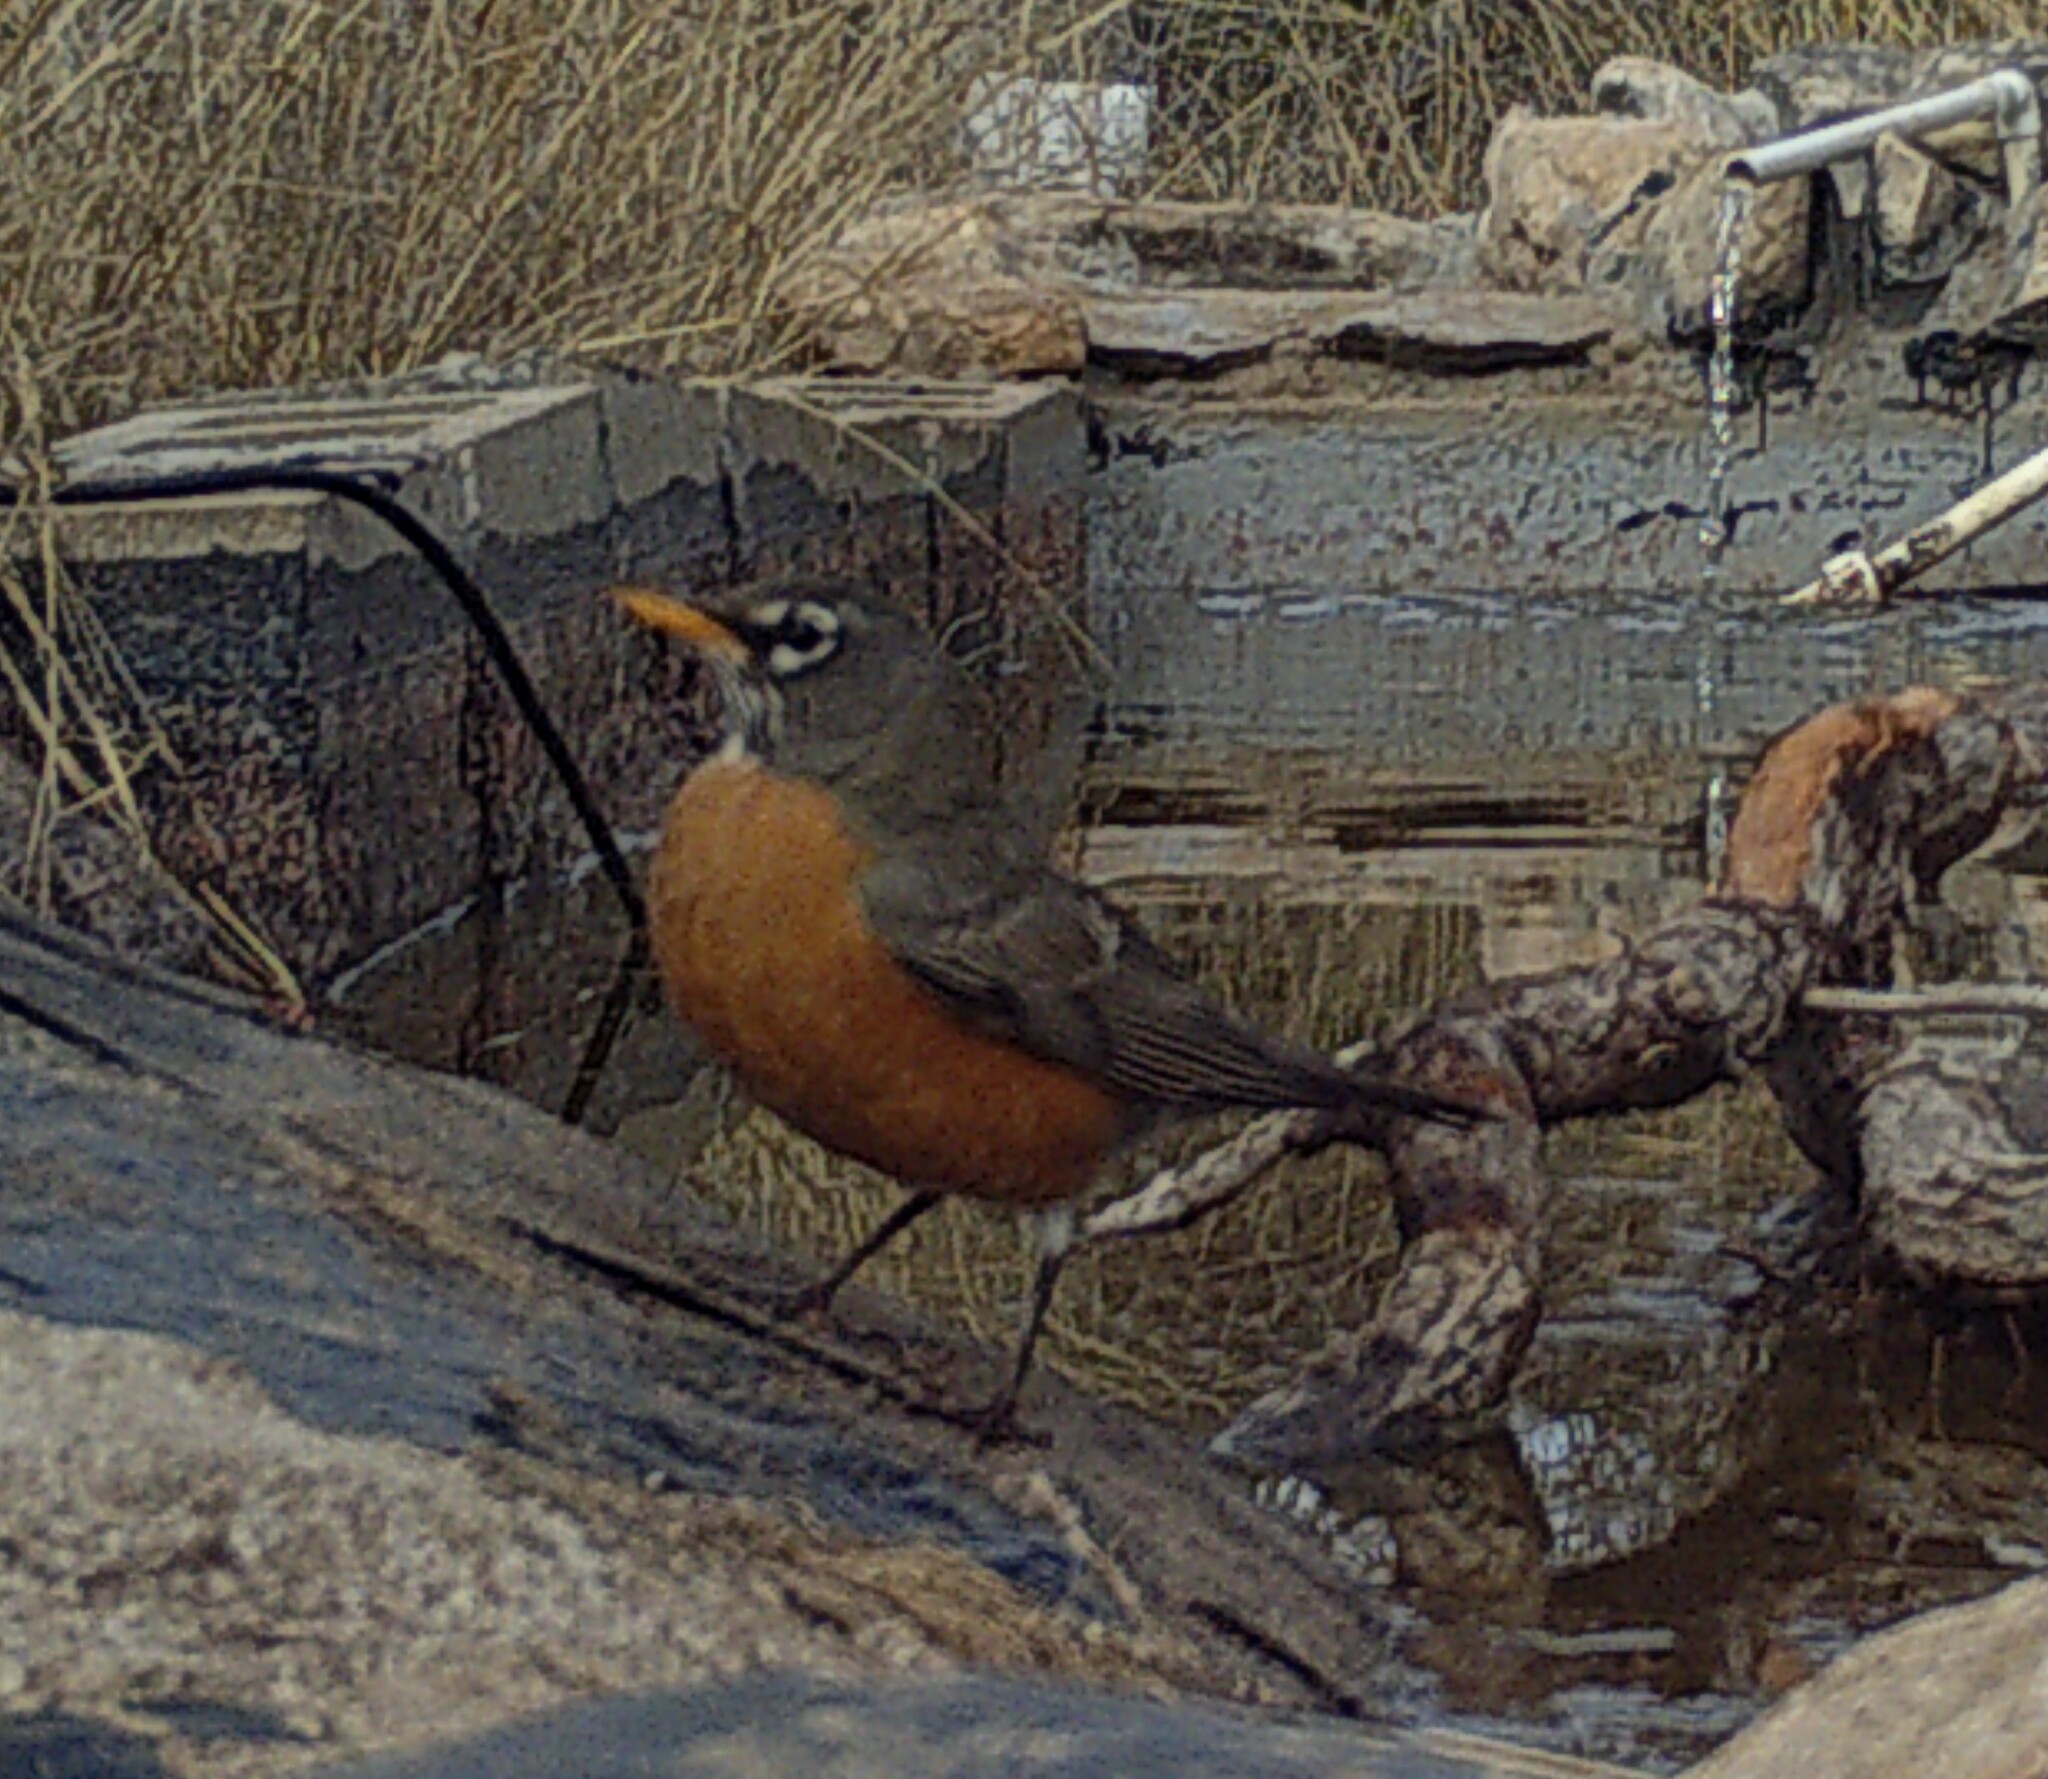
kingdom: Animalia
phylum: Chordata
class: Aves
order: Passeriformes
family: Turdidae
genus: Turdus
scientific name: Turdus migratorius
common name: American robin
